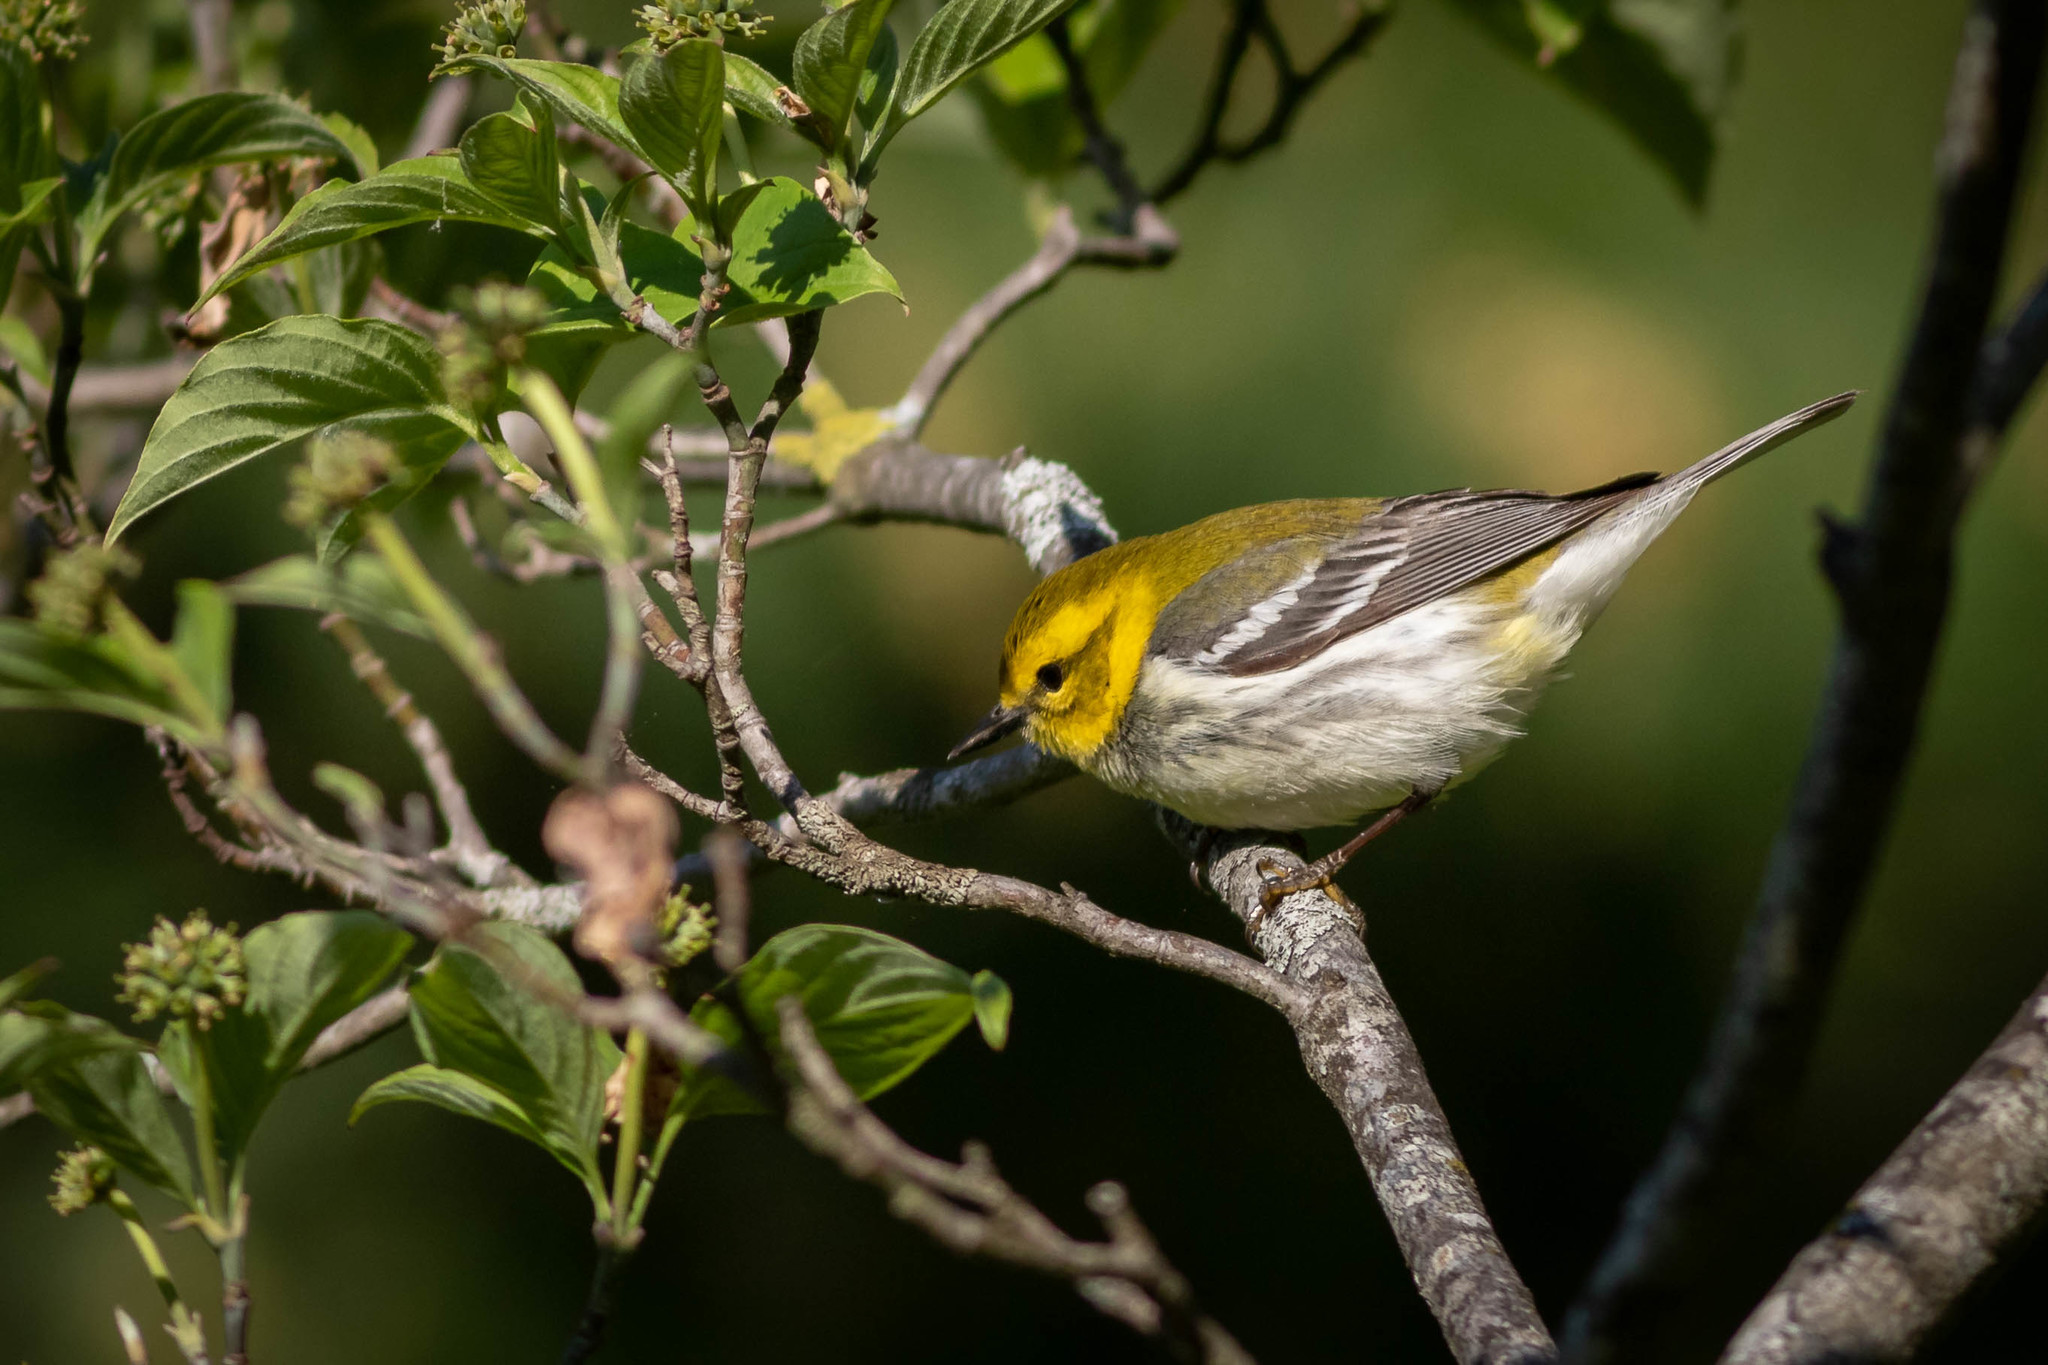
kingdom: Animalia
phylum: Chordata
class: Aves
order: Passeriformes
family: Parulidae
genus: Setophaga
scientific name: Setophaga virens
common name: Black-throated green warbler
